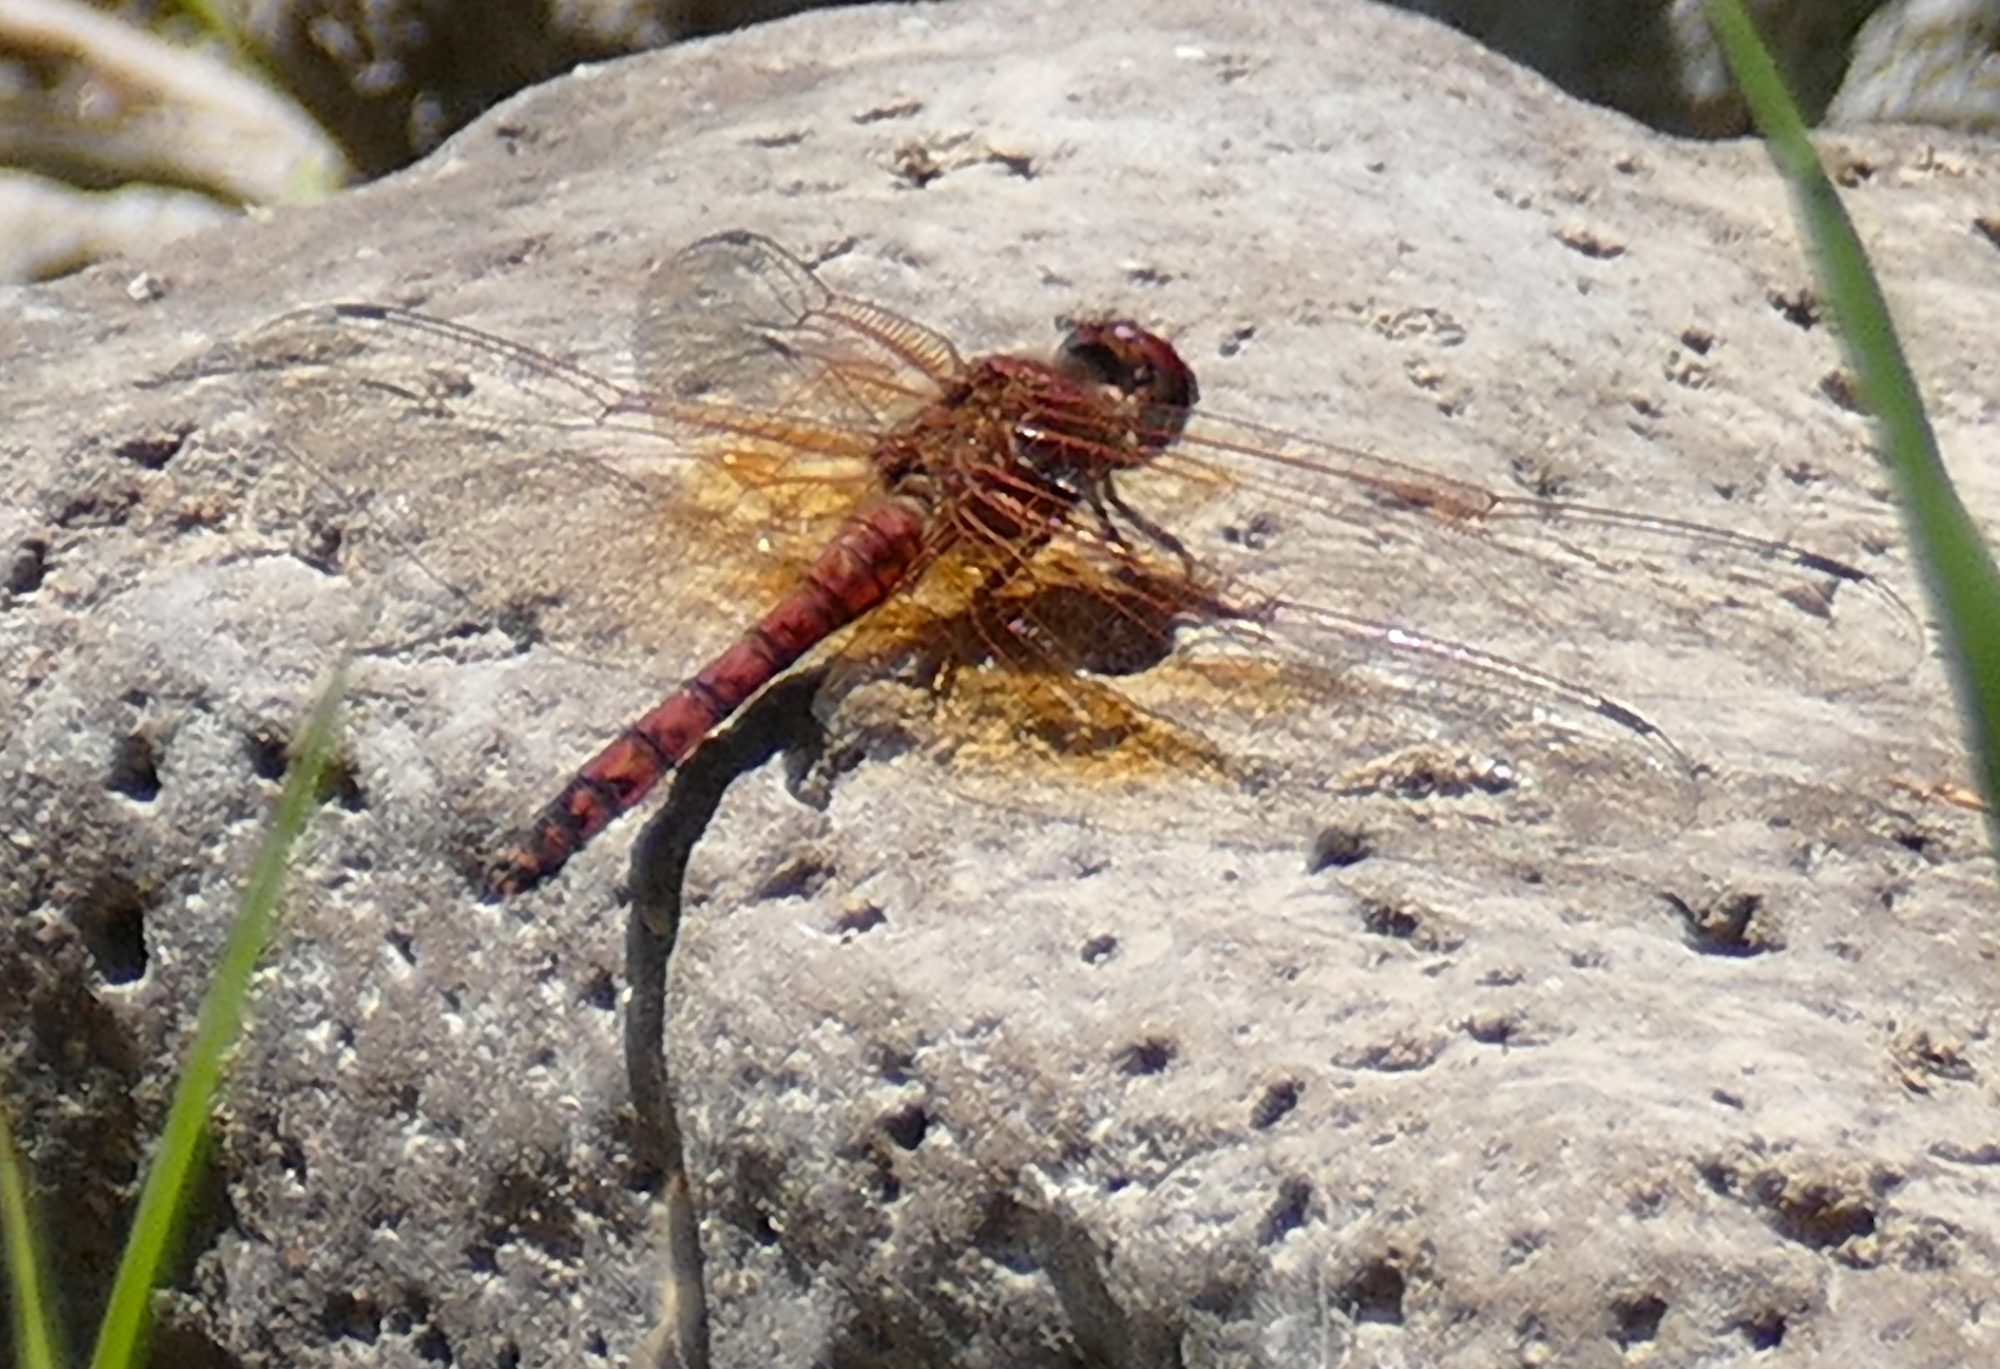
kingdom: Animalia
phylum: Arthropoda
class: Insecta
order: Odonata
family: Libellulidae
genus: Paltothemis
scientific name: Paltothemis lineatipes
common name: Red rock skimmer
